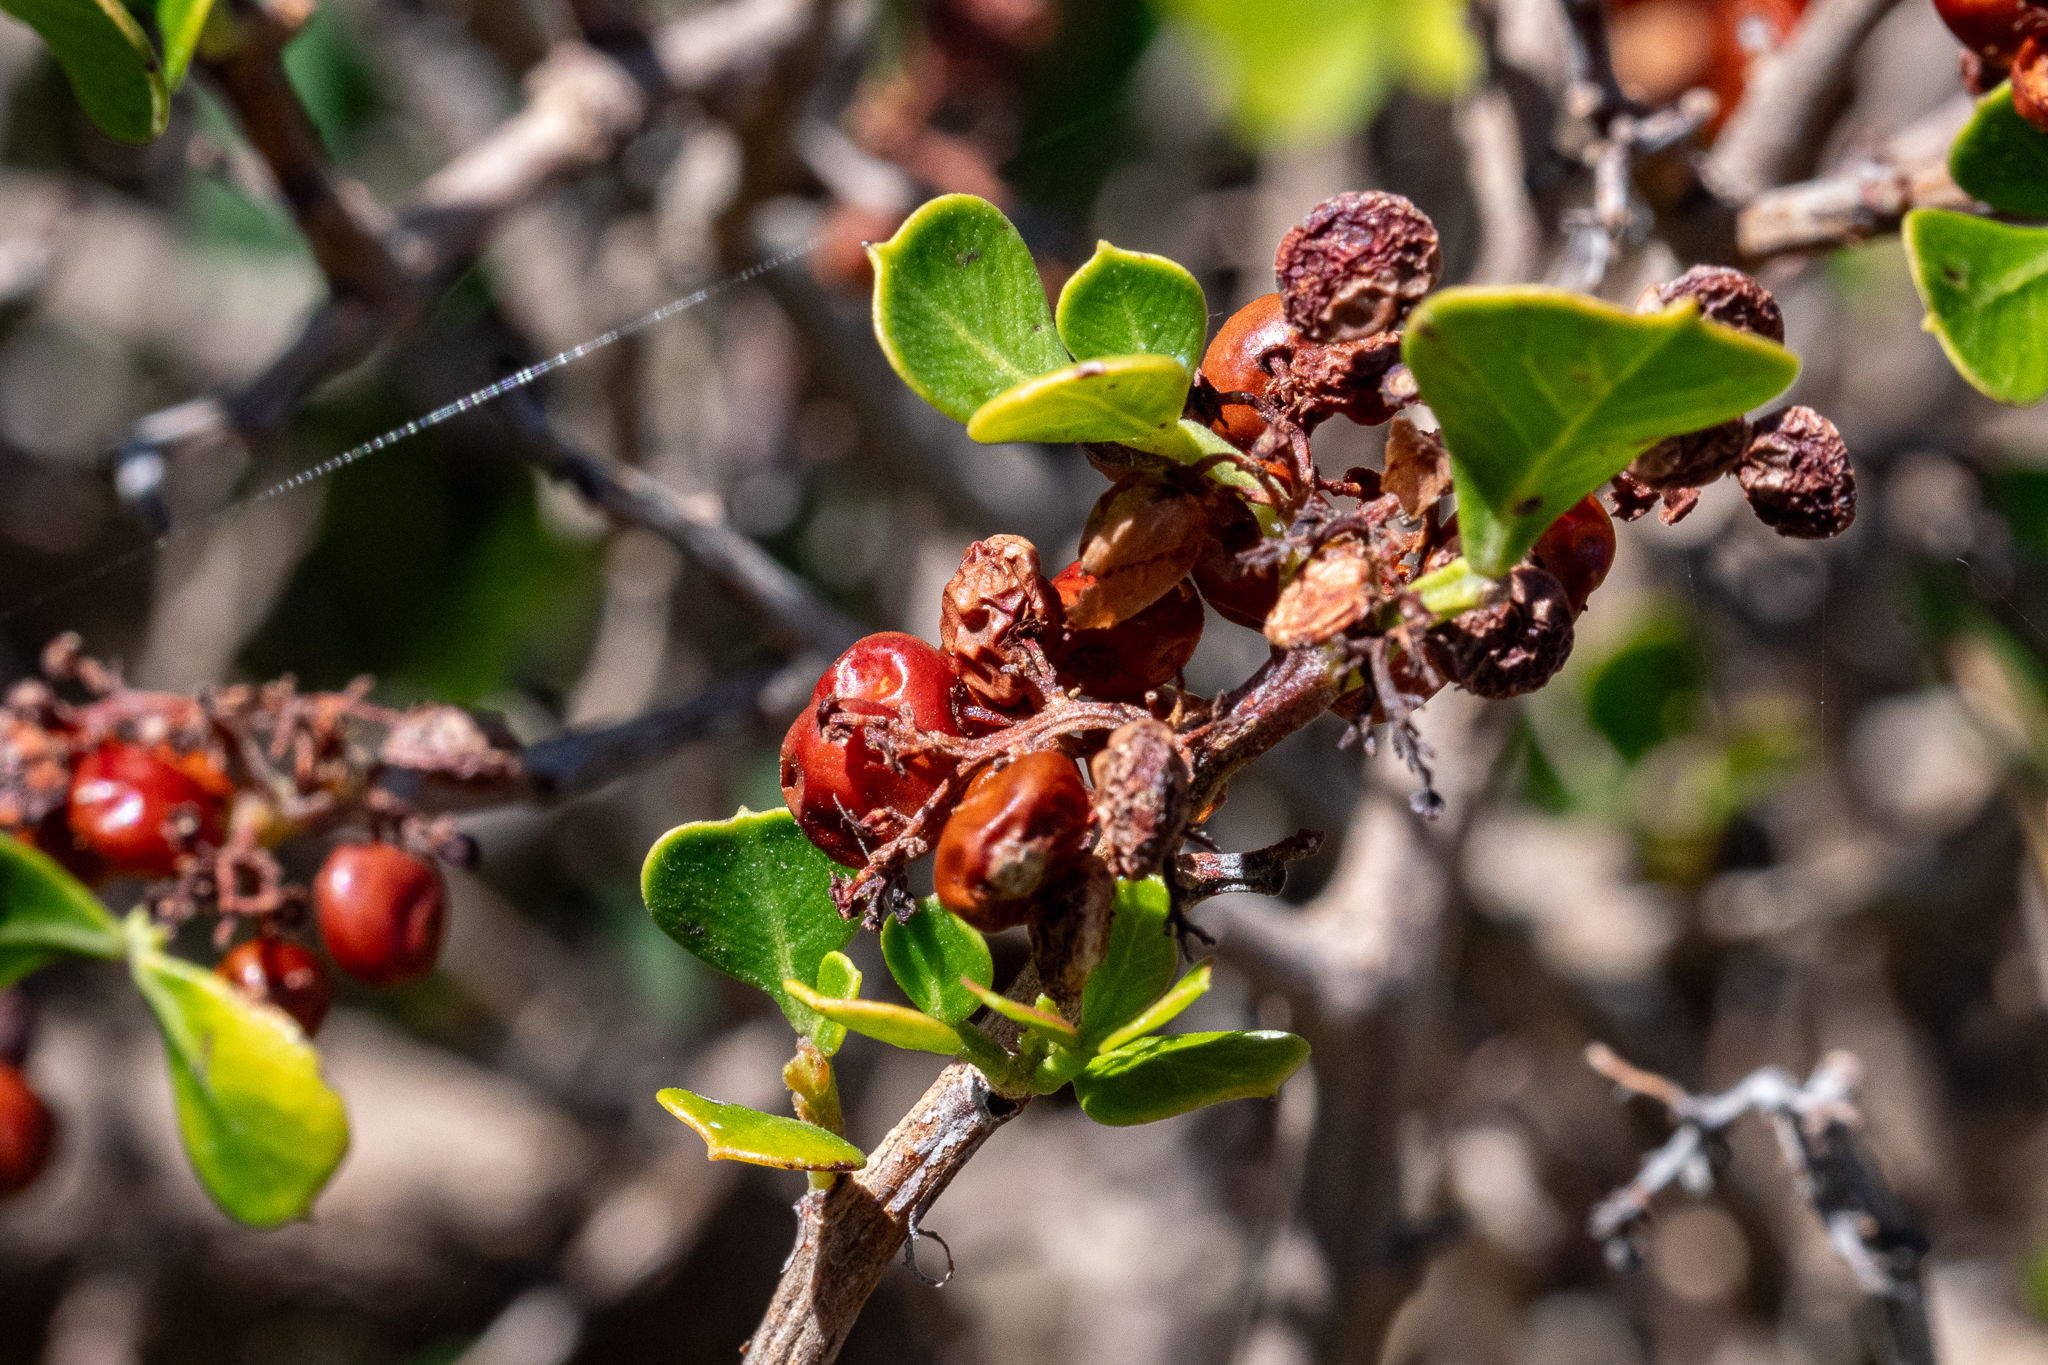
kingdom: Plantae
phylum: Tracheophyta
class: Magnoliopsida
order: Sapindales
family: Anacardiaceae
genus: Searsia
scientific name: Searsia glauca
